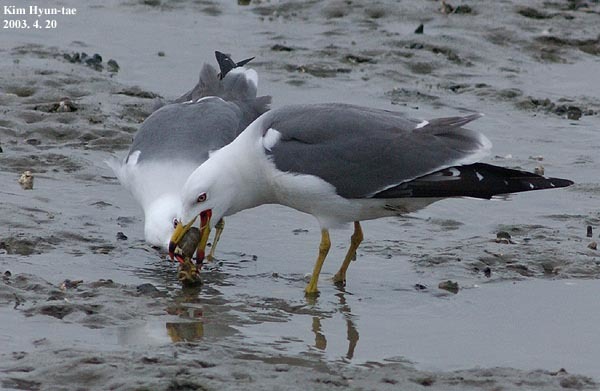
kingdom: Animalia
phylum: Chordata
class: Aves
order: Charadriiformes
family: Laridae
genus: Larus
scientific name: Larus crassirostris
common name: Black-tailed gull
